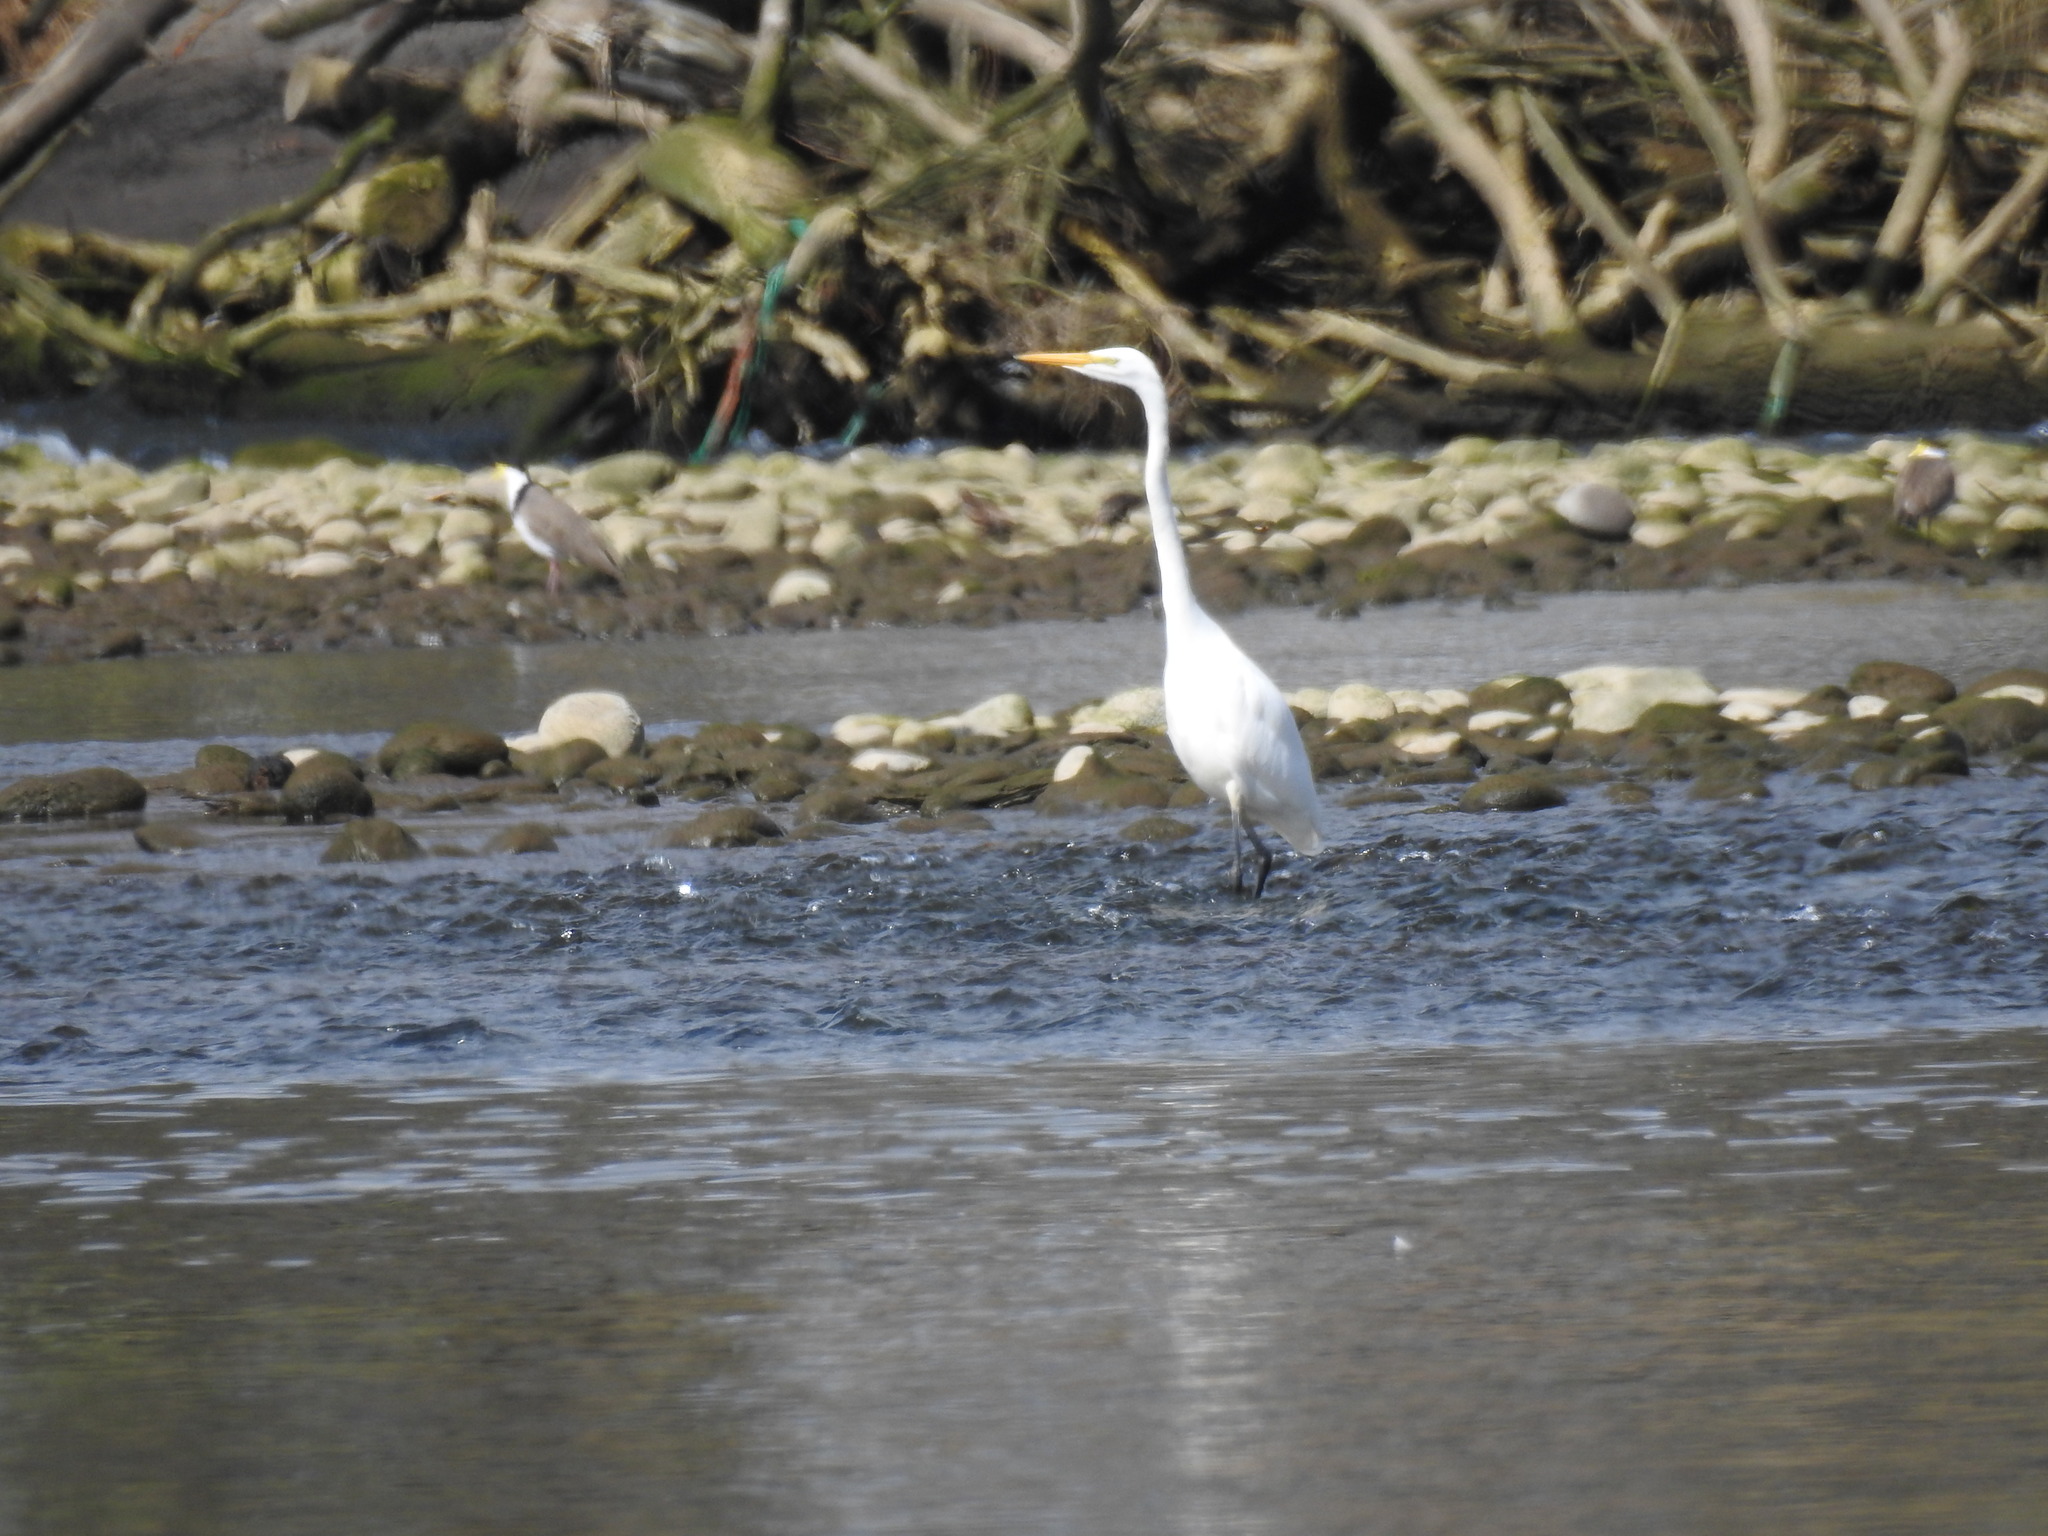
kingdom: Animalia
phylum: Chordata
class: Aves
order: Pelecaniformes
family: Ardeidae
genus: Ardea
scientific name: Ardea modesta
